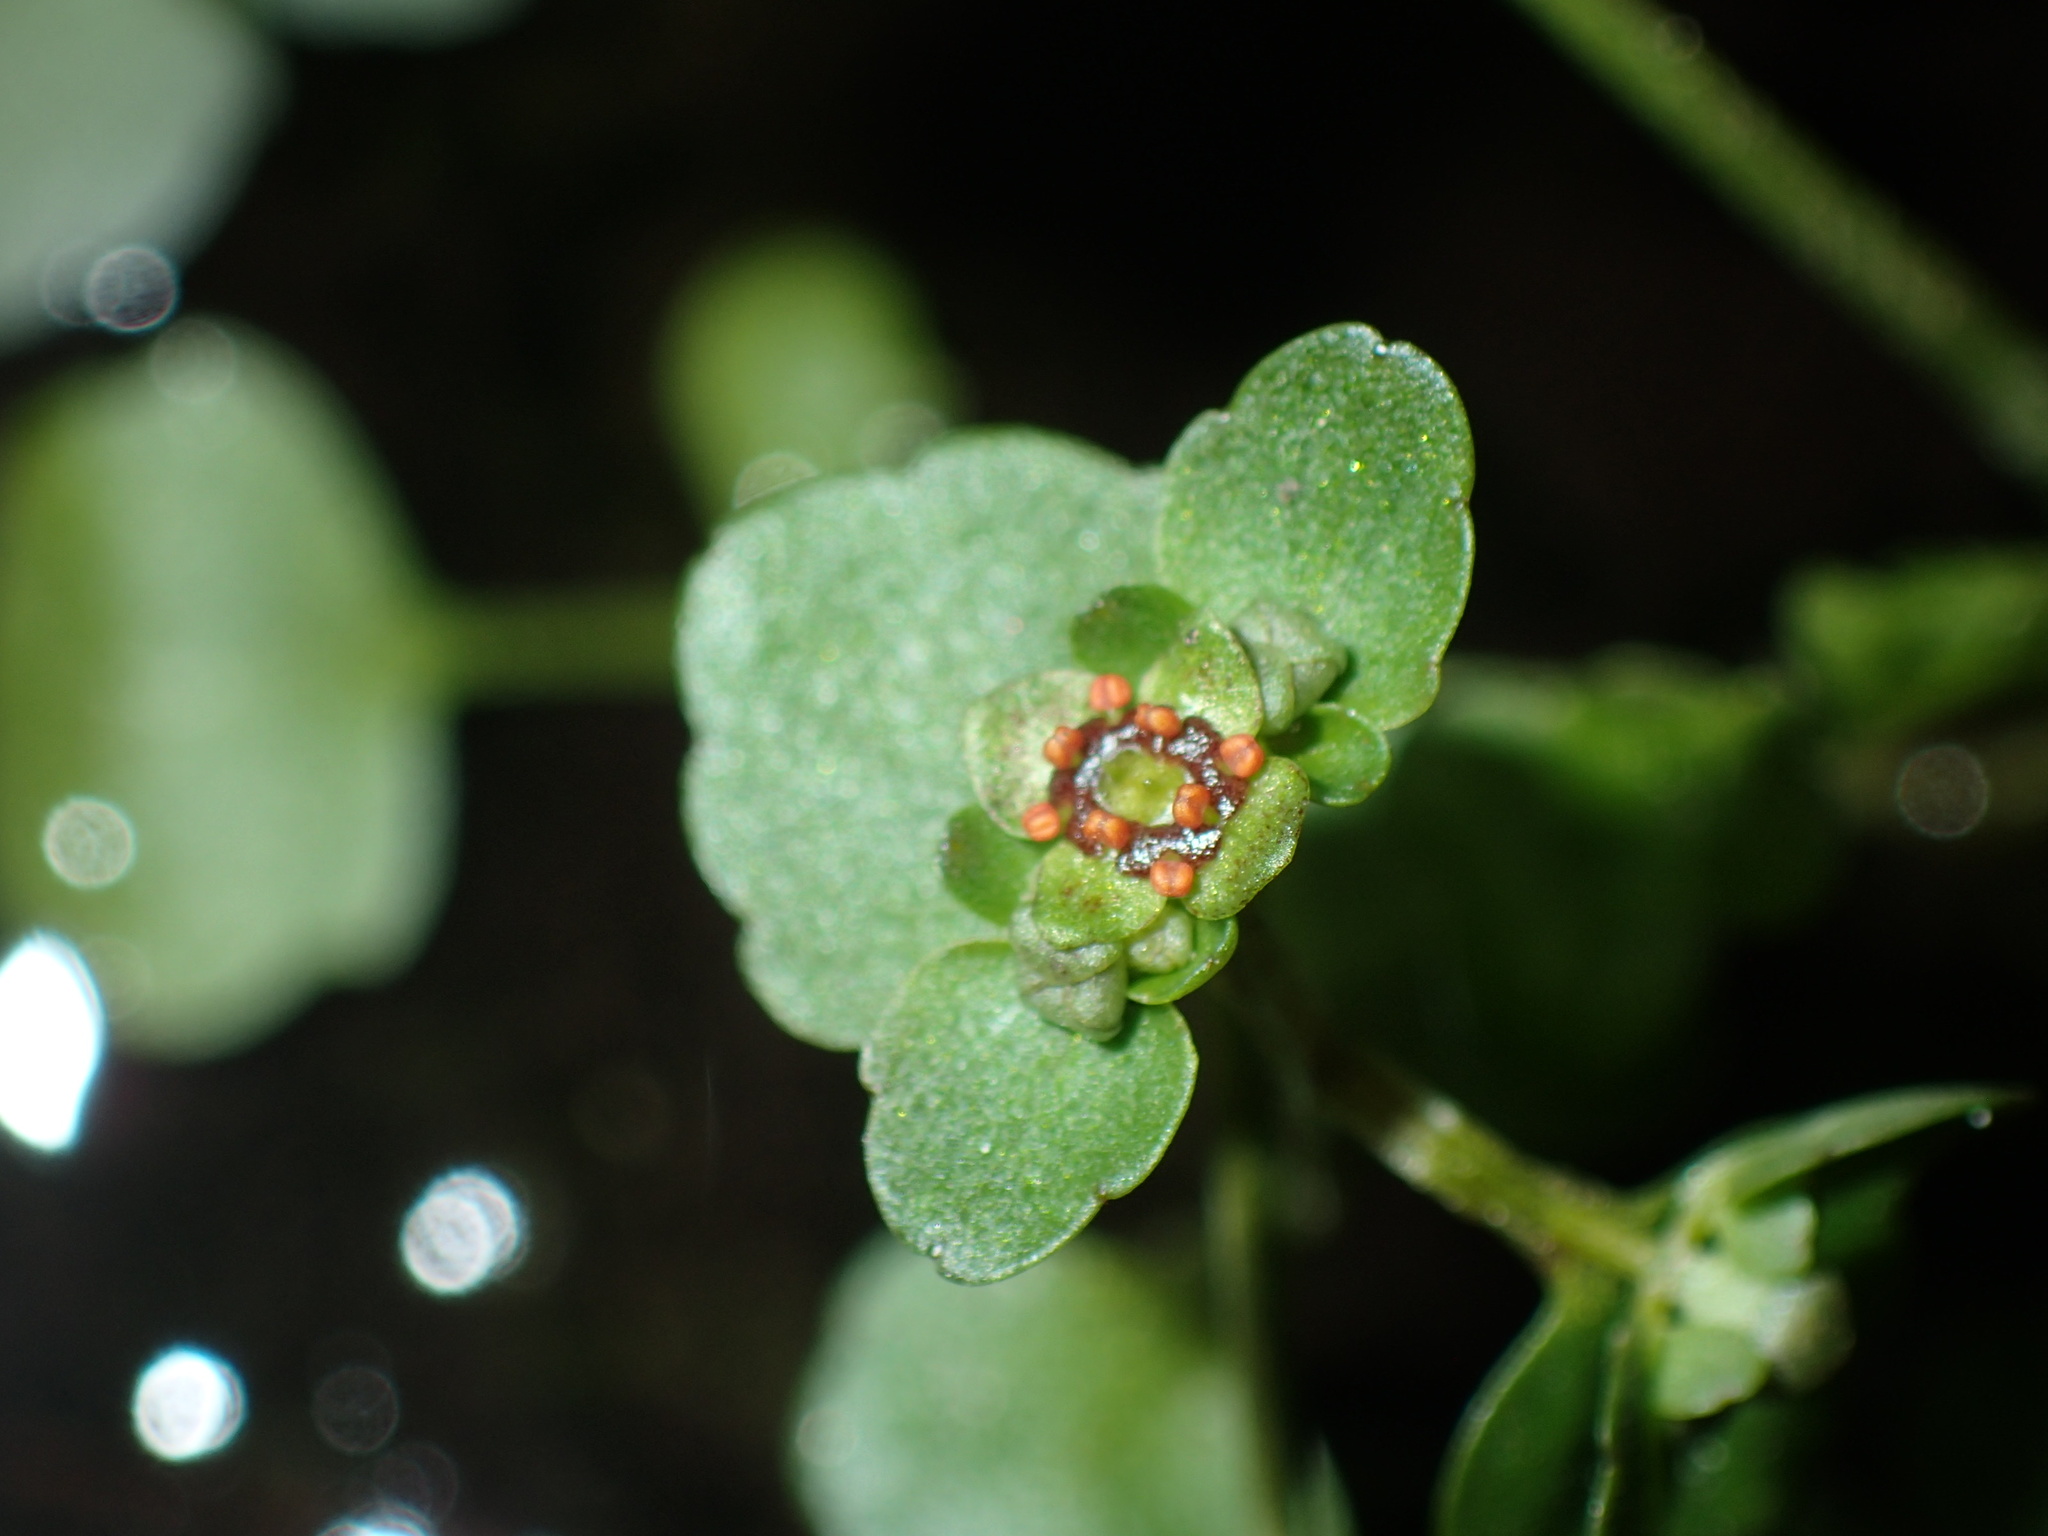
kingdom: Plantae
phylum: Tracheophyta
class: Magnoliopsida
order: Saxifragales
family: Saxifragaceae
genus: Chrysosplenium
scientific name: Chrysosplenium americanum
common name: American golden-saxifrage
